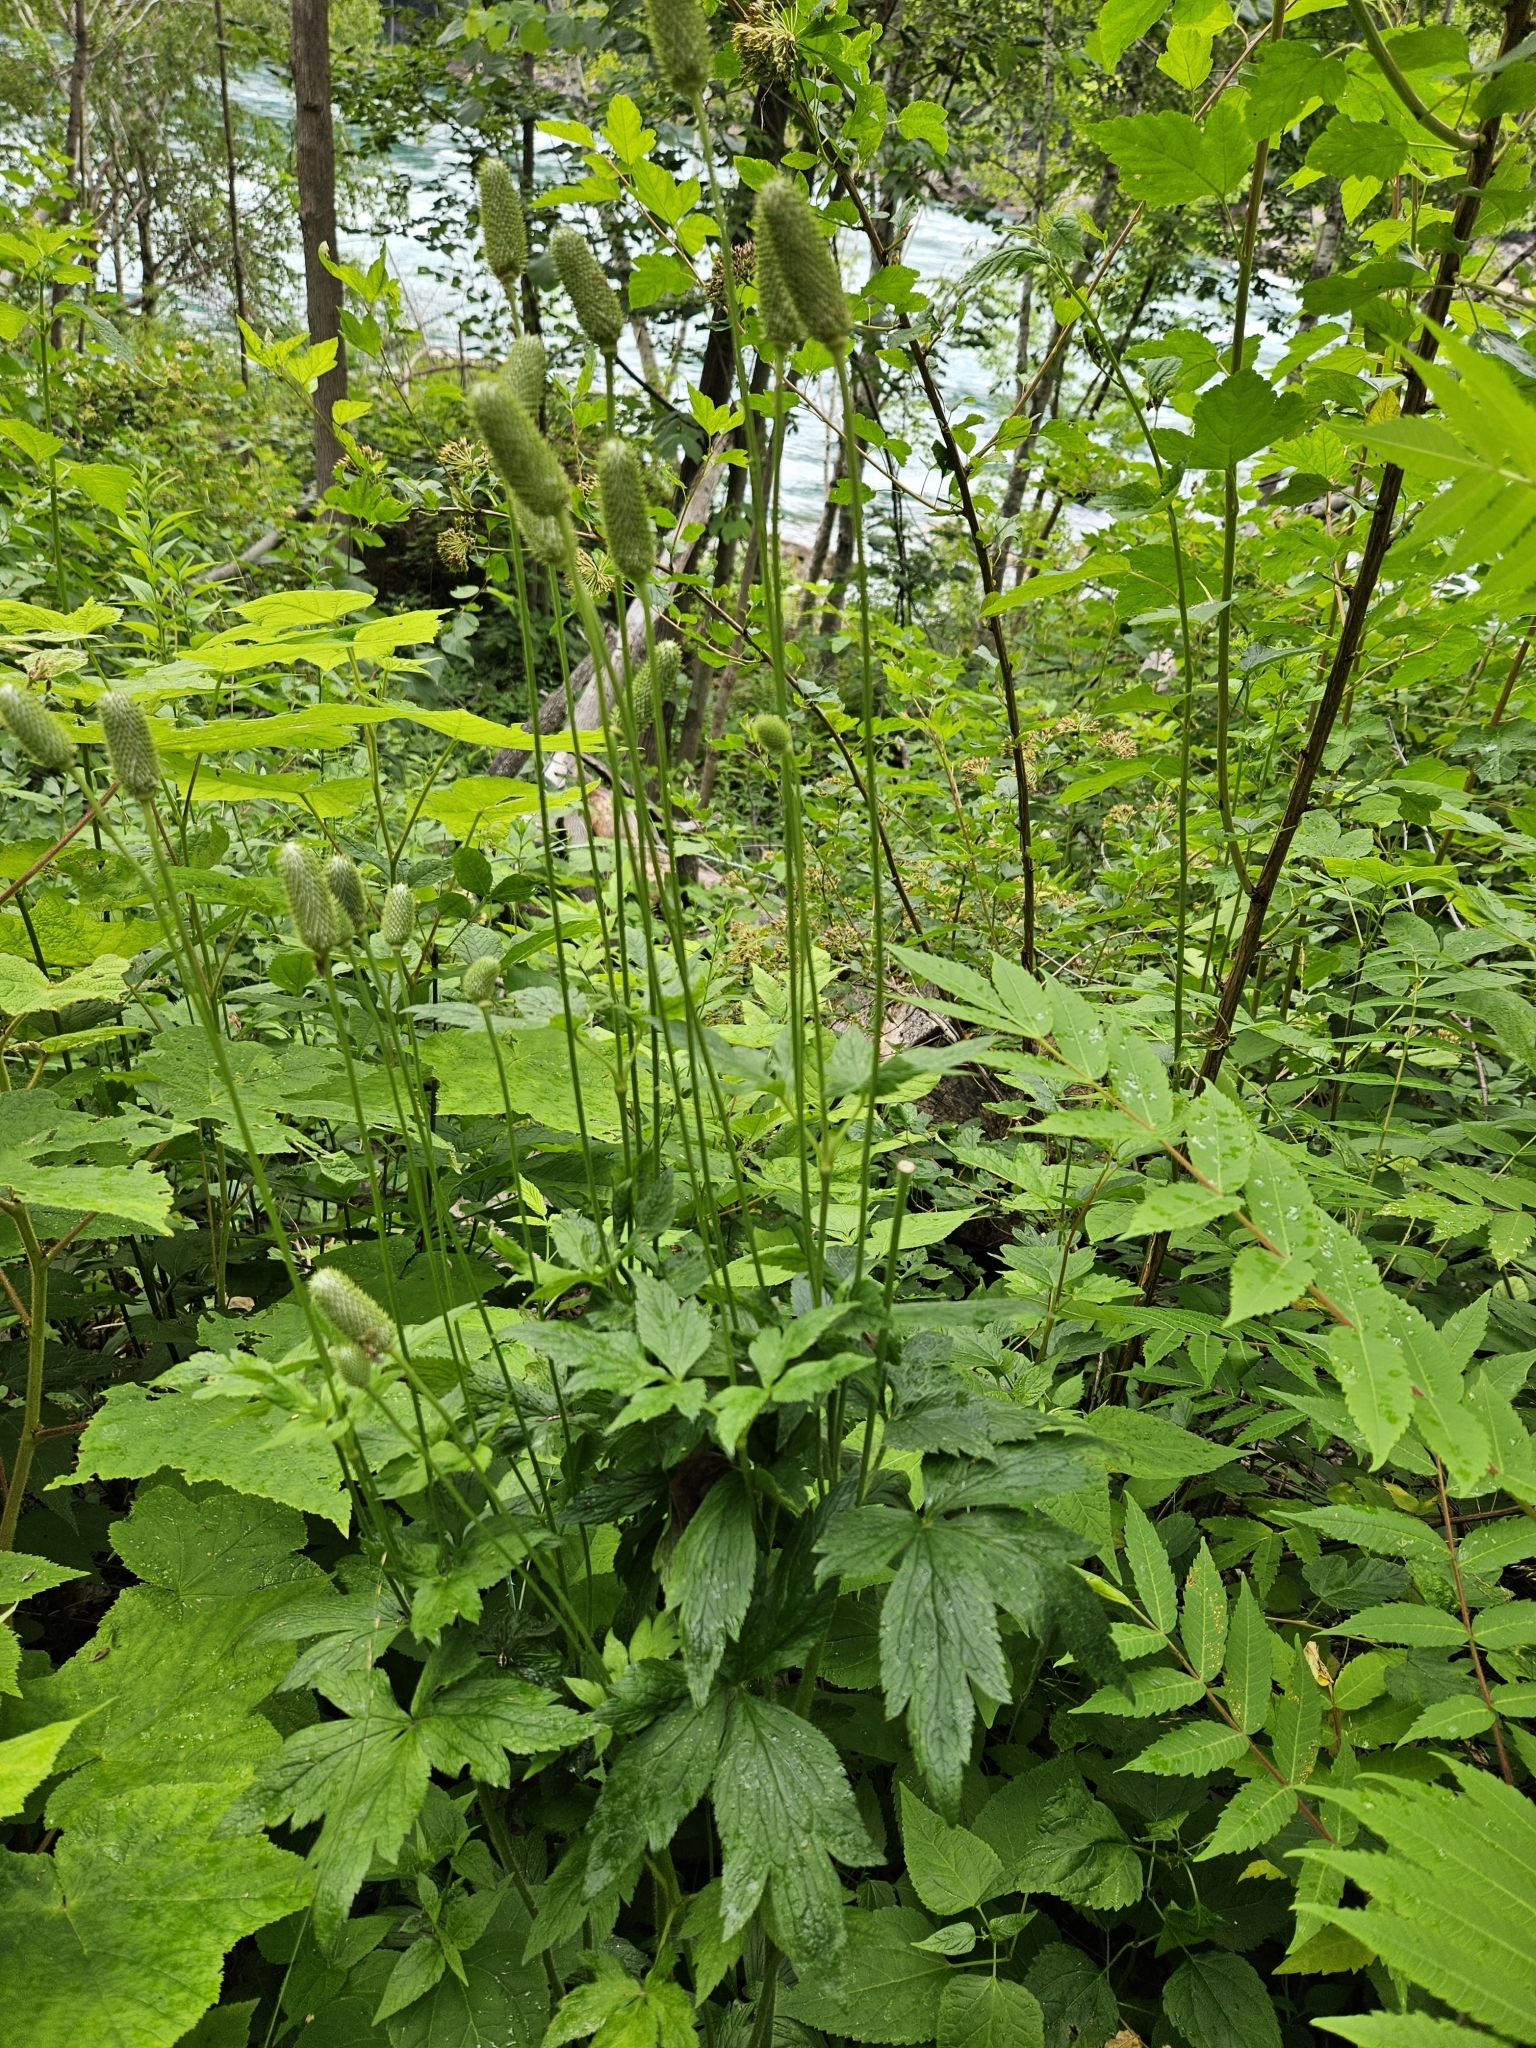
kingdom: Plantae
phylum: Tracheophyta
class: Magnoliopsida
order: Ranunculales
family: Ranunculaceae
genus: Anemone
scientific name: Anemone virginiana
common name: Tall anemone
